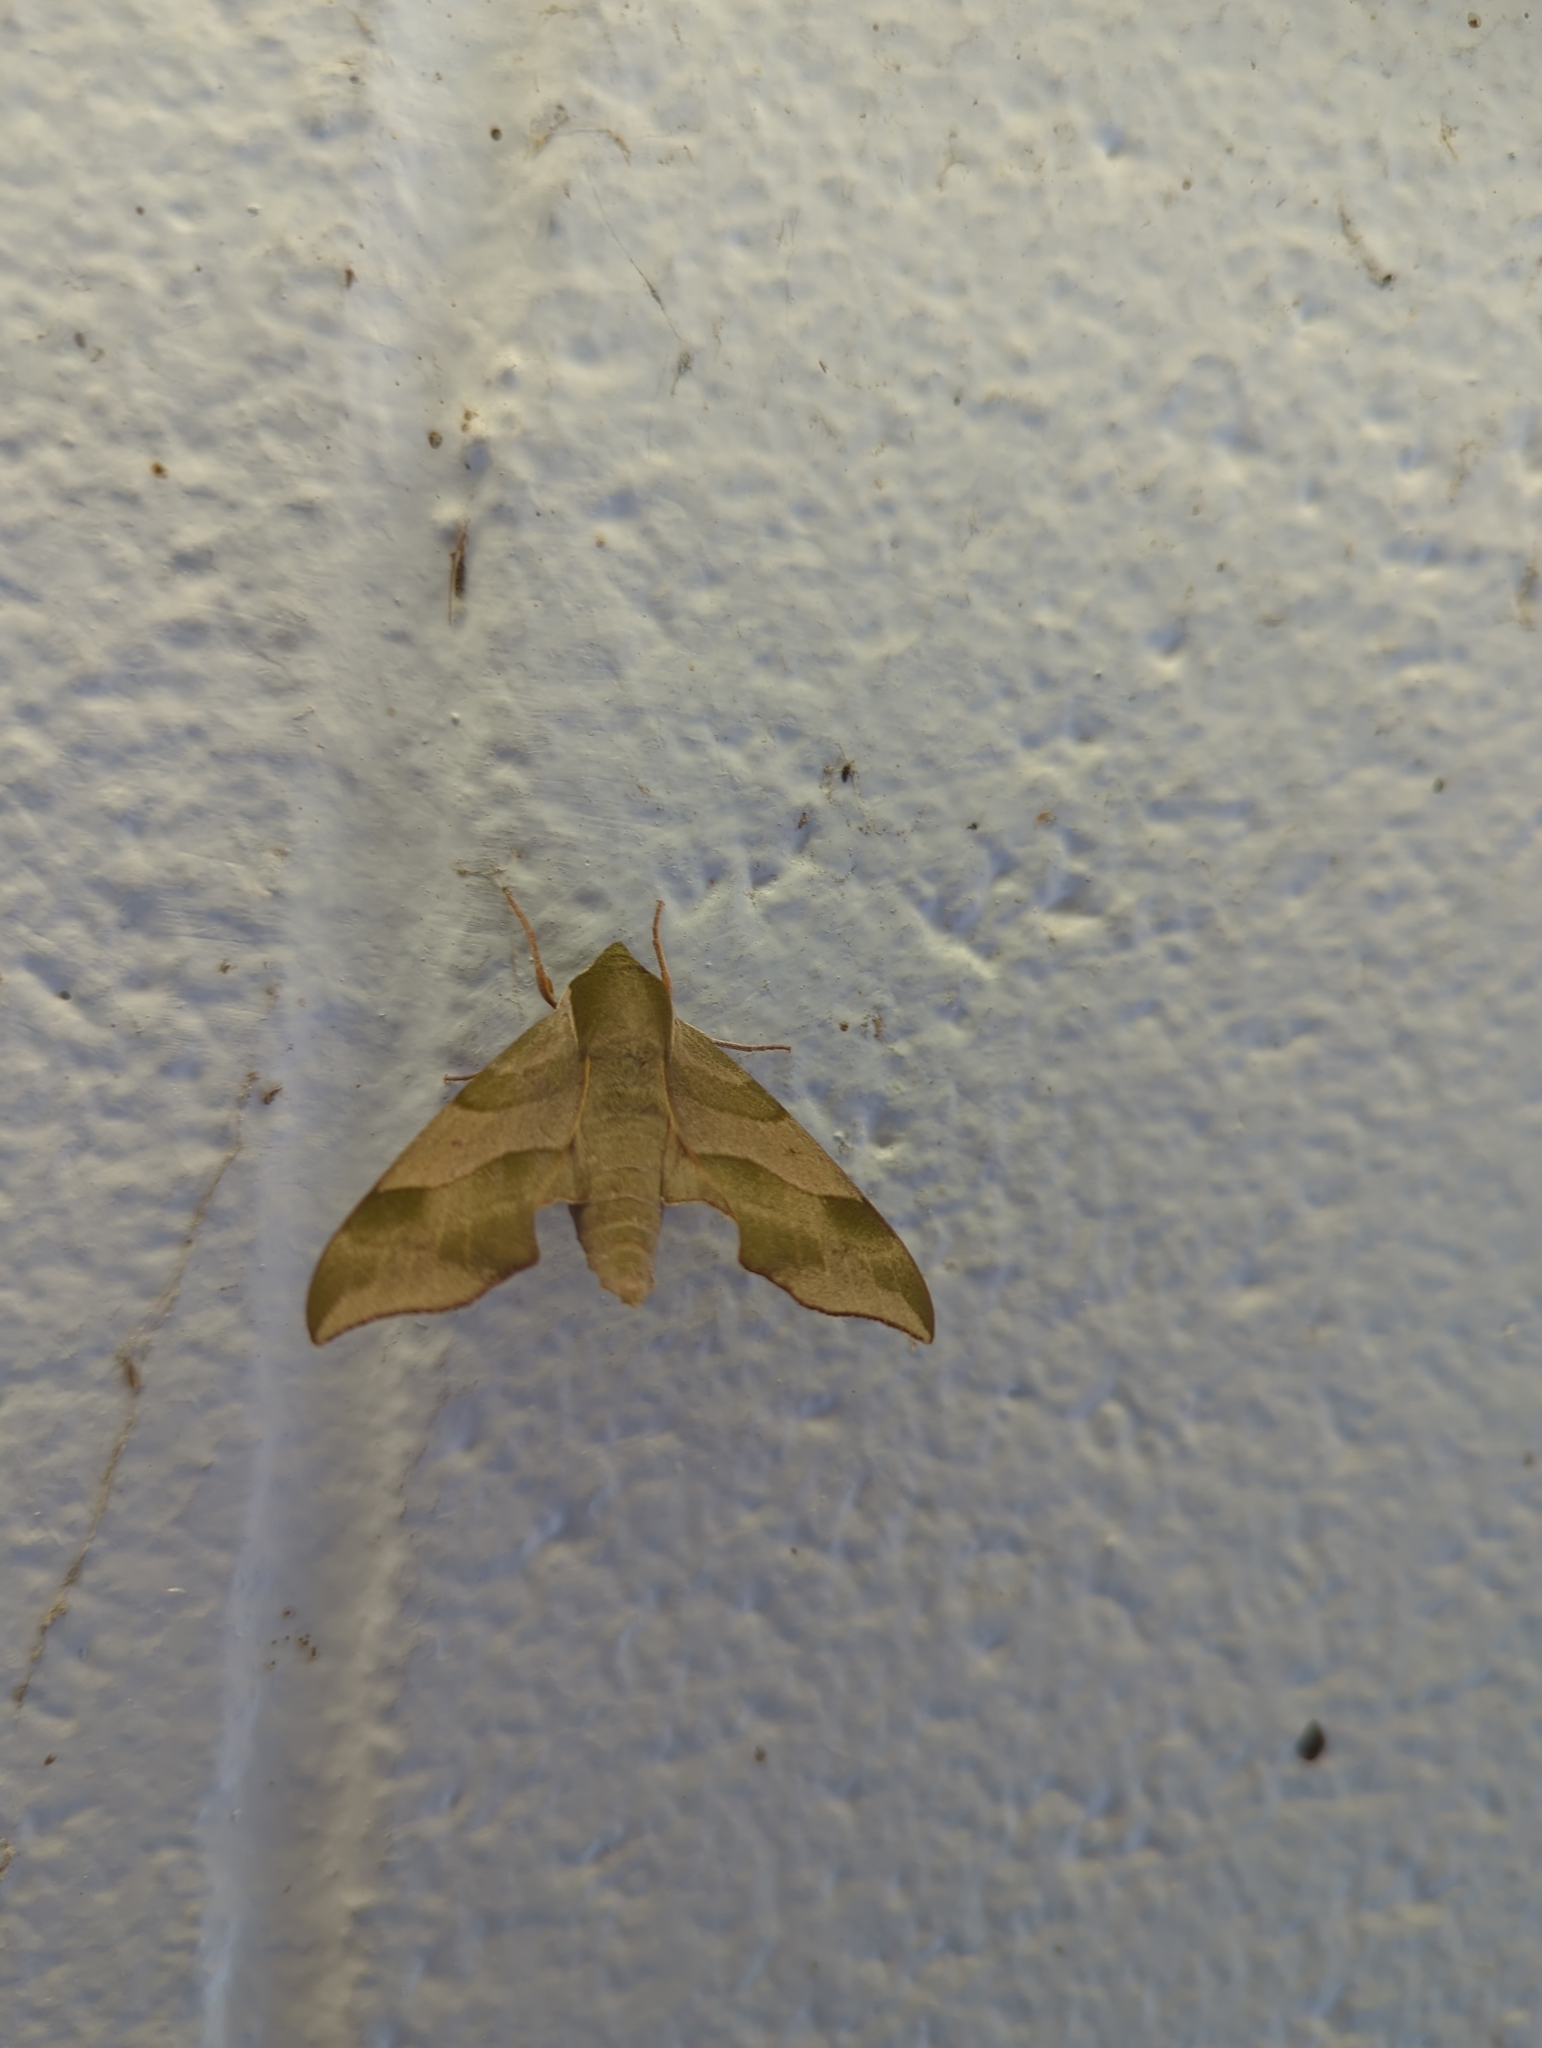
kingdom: Animalia
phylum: Arthropoda
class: Insecta
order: Lepidoptera
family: Sphingidae
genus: Darapsa
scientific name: Darapsa myron
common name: Hog sphinx
